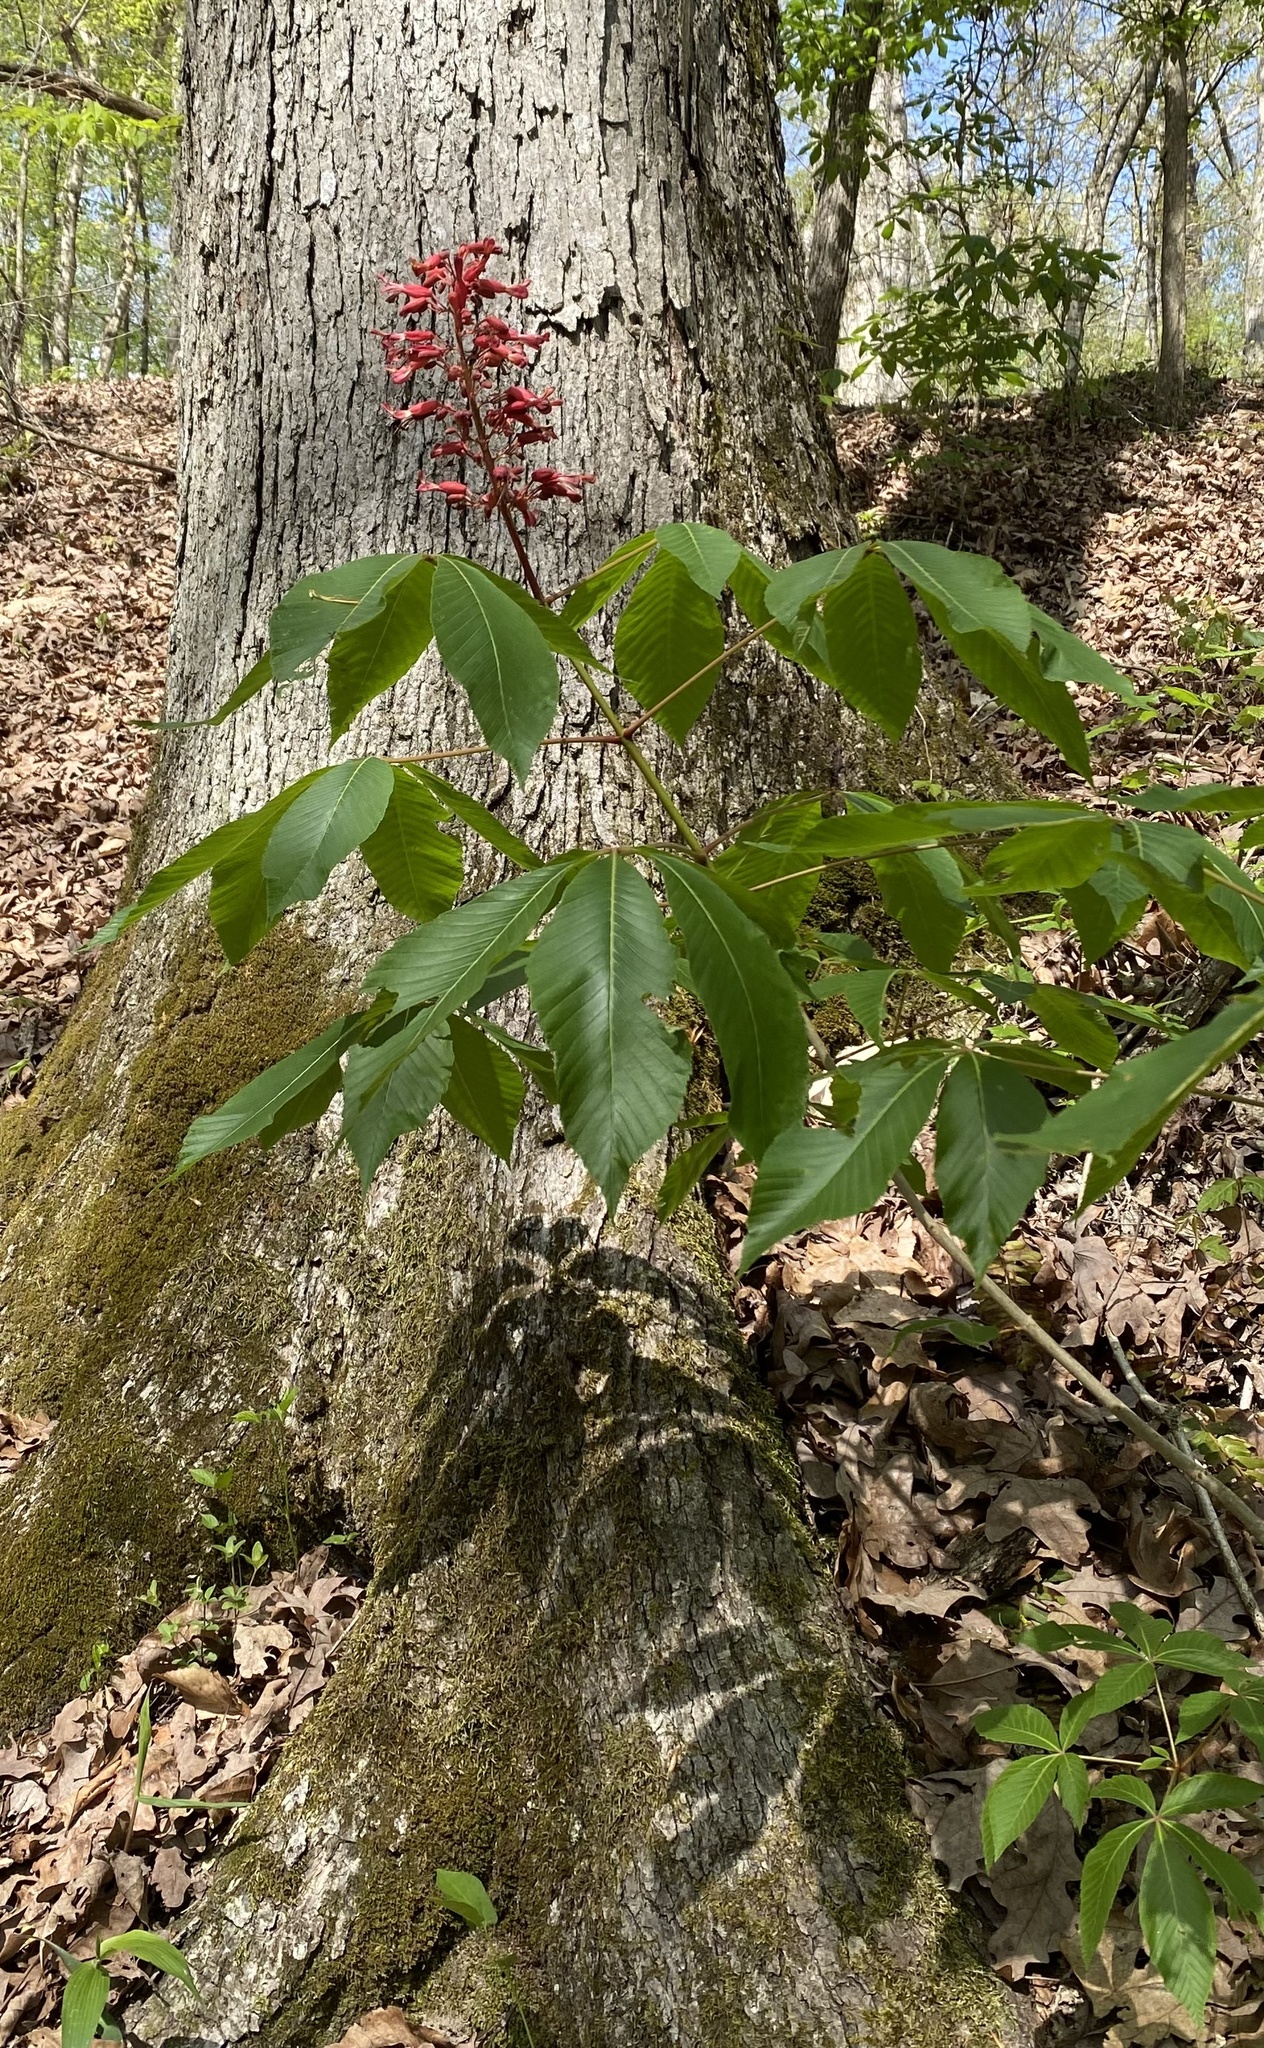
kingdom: Plantae
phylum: Tracheophyta
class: Magnoliopsida
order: Sapindales
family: Sapindaceae
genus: Aesculus
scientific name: Aesculus pavia
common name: Red buckeye
